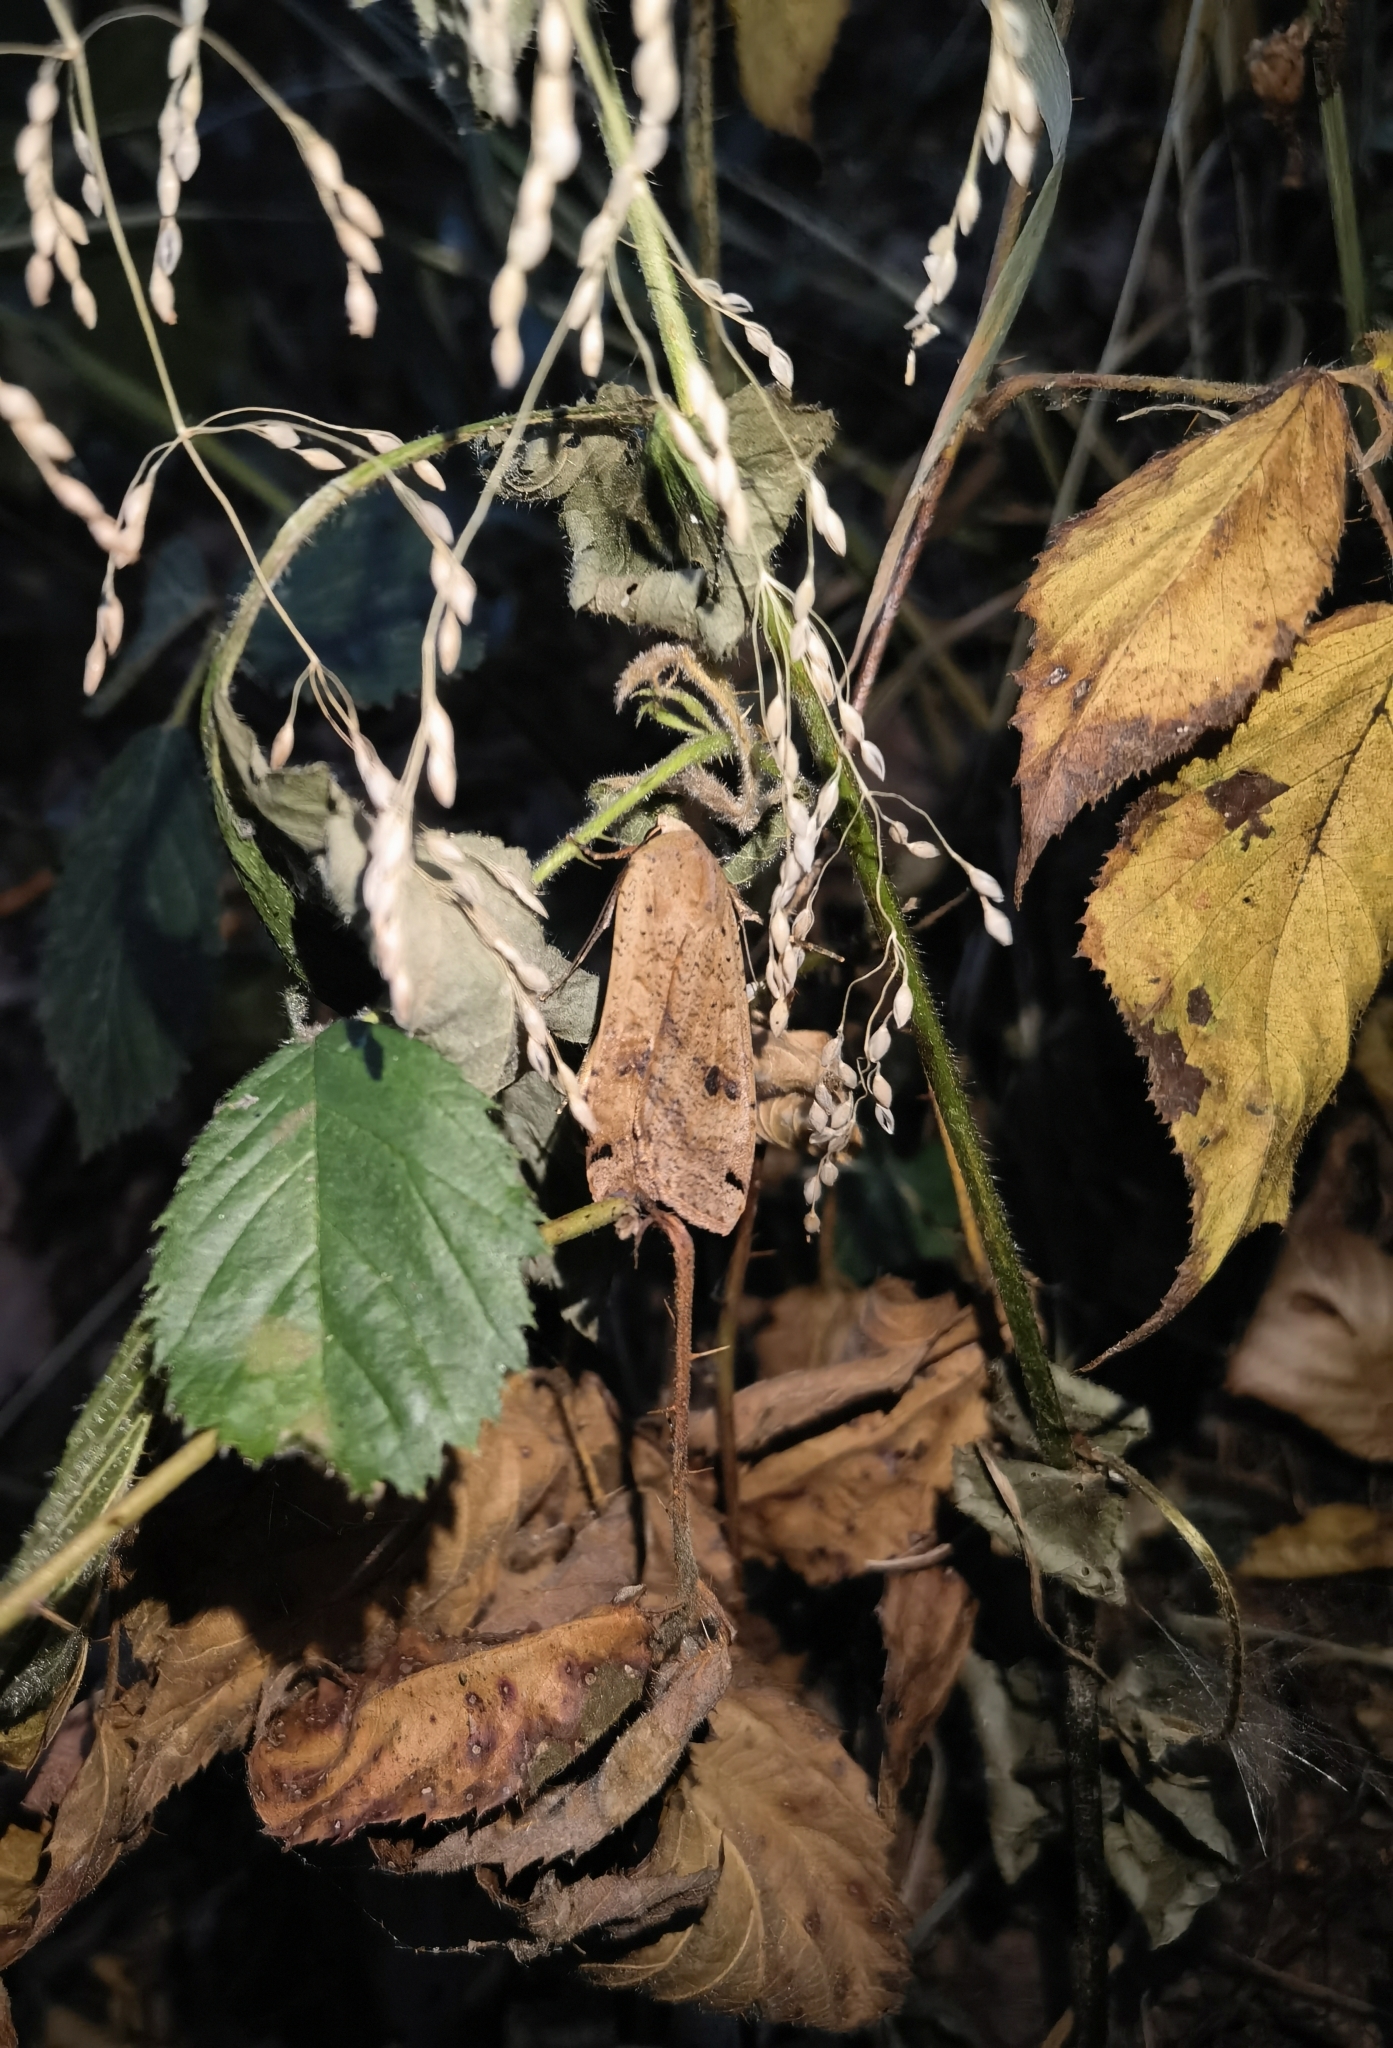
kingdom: Animalia
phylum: Arthropoda
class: Insecta
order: Lepidoptera
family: Noctuidae
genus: Noctua
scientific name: Noctua pronuba
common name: Large yellow underwing
